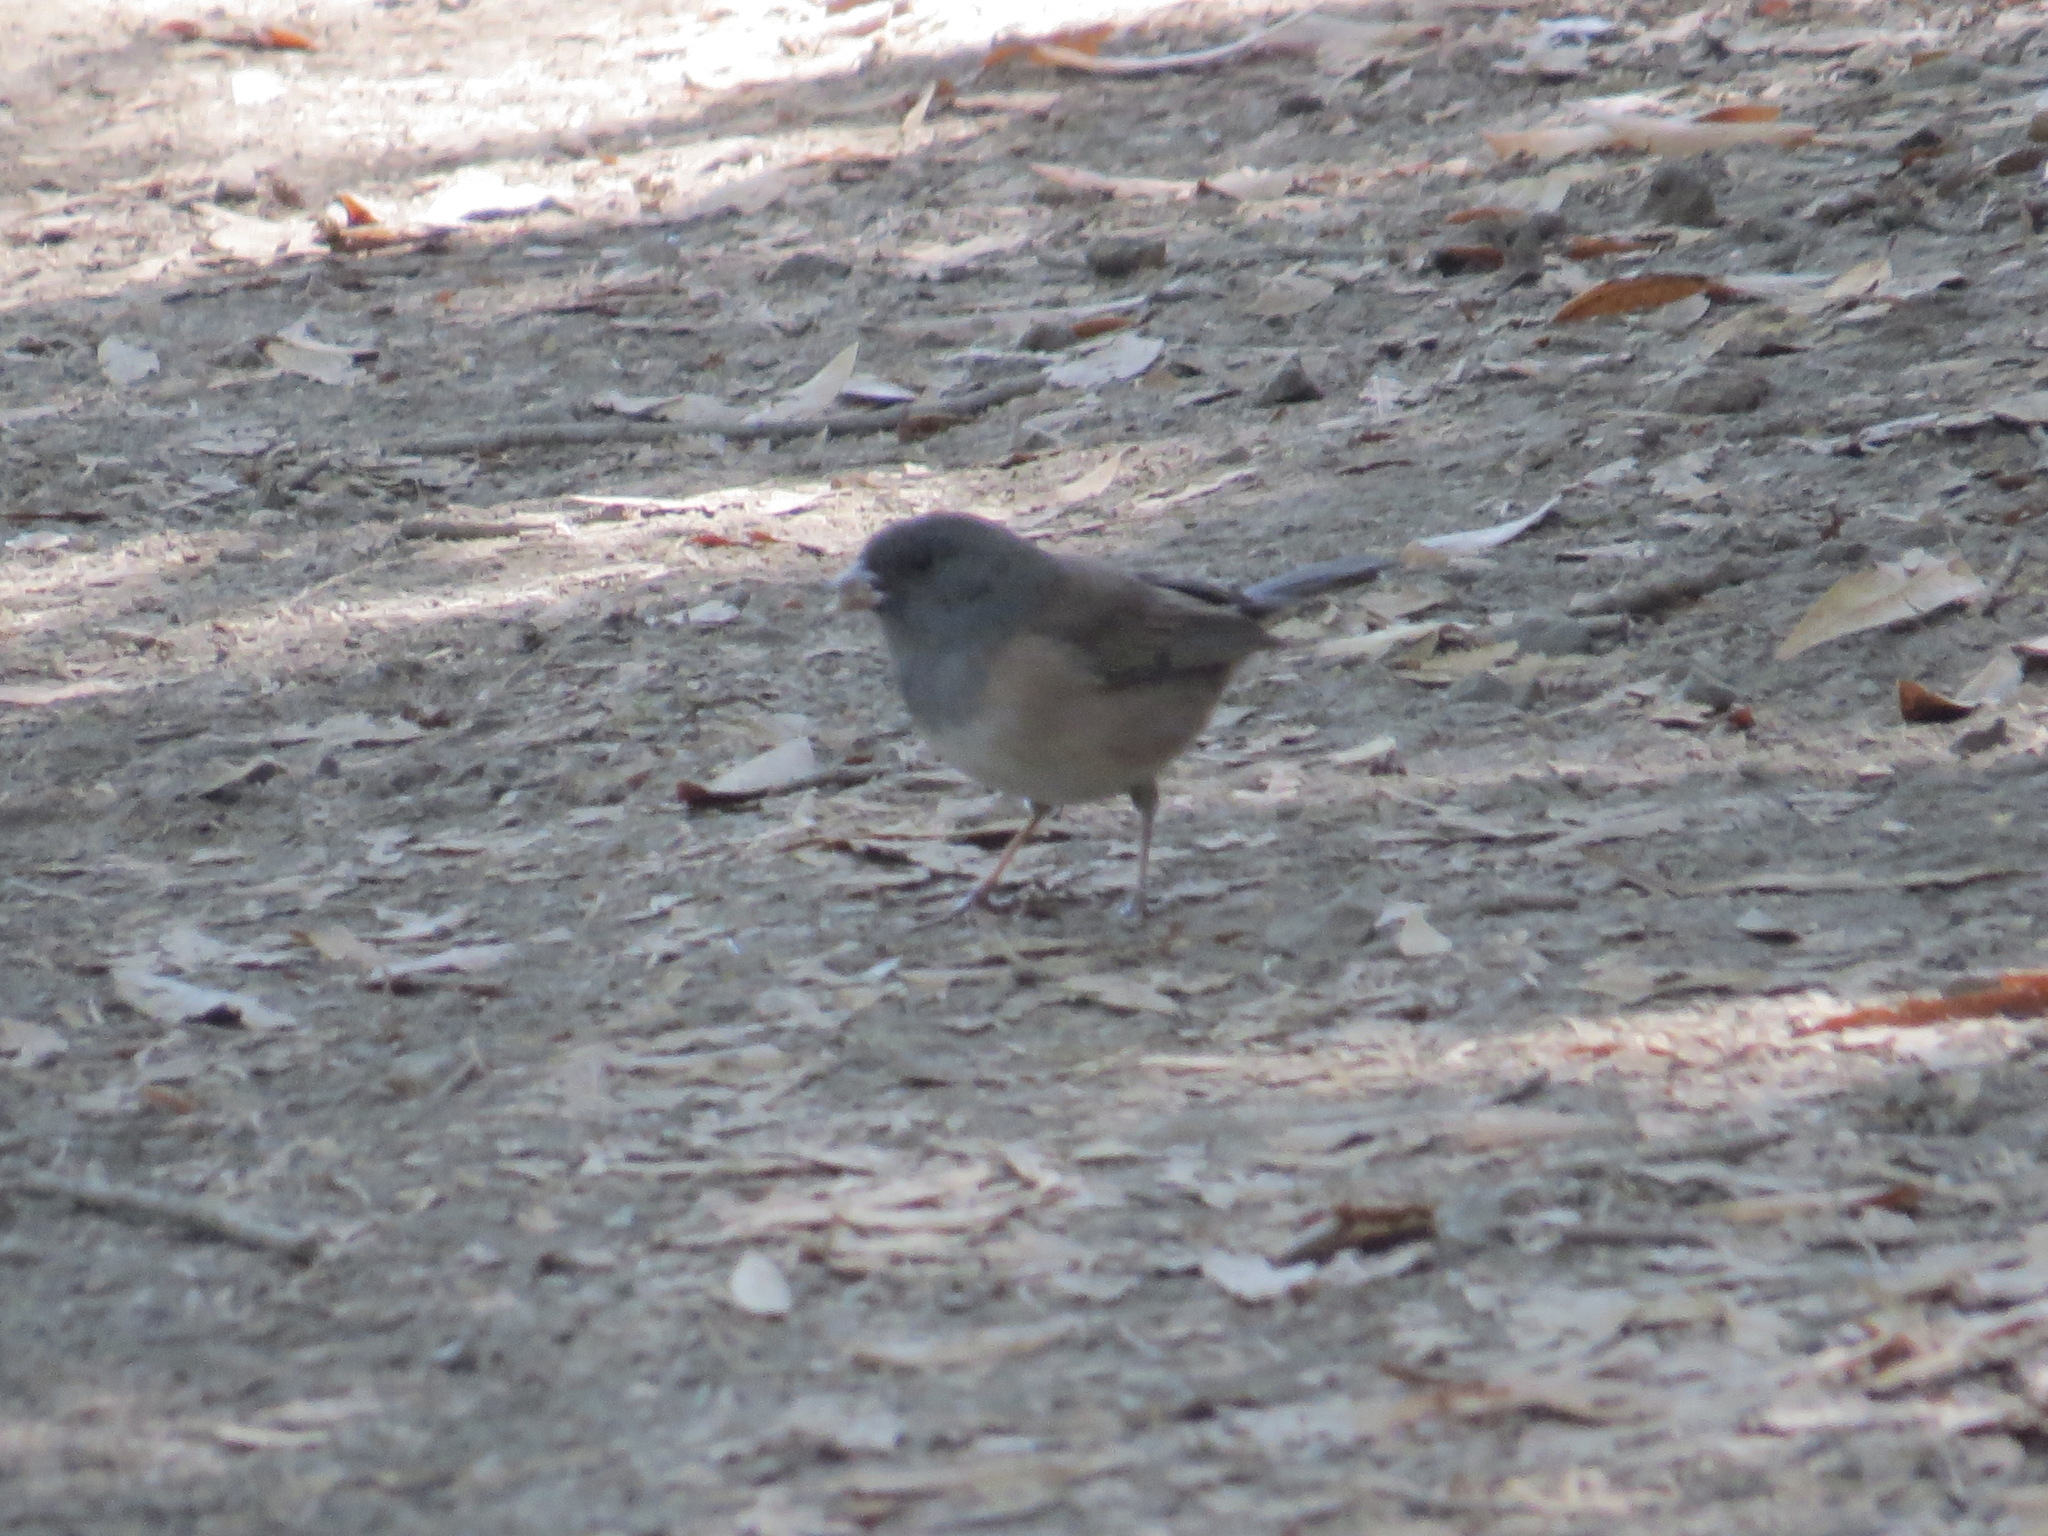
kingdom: Animalia
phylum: Chordata
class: Aves
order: Passeriformes
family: Passerellidae
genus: Junco
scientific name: Junco hyemalis
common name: Dark-eyed junco
